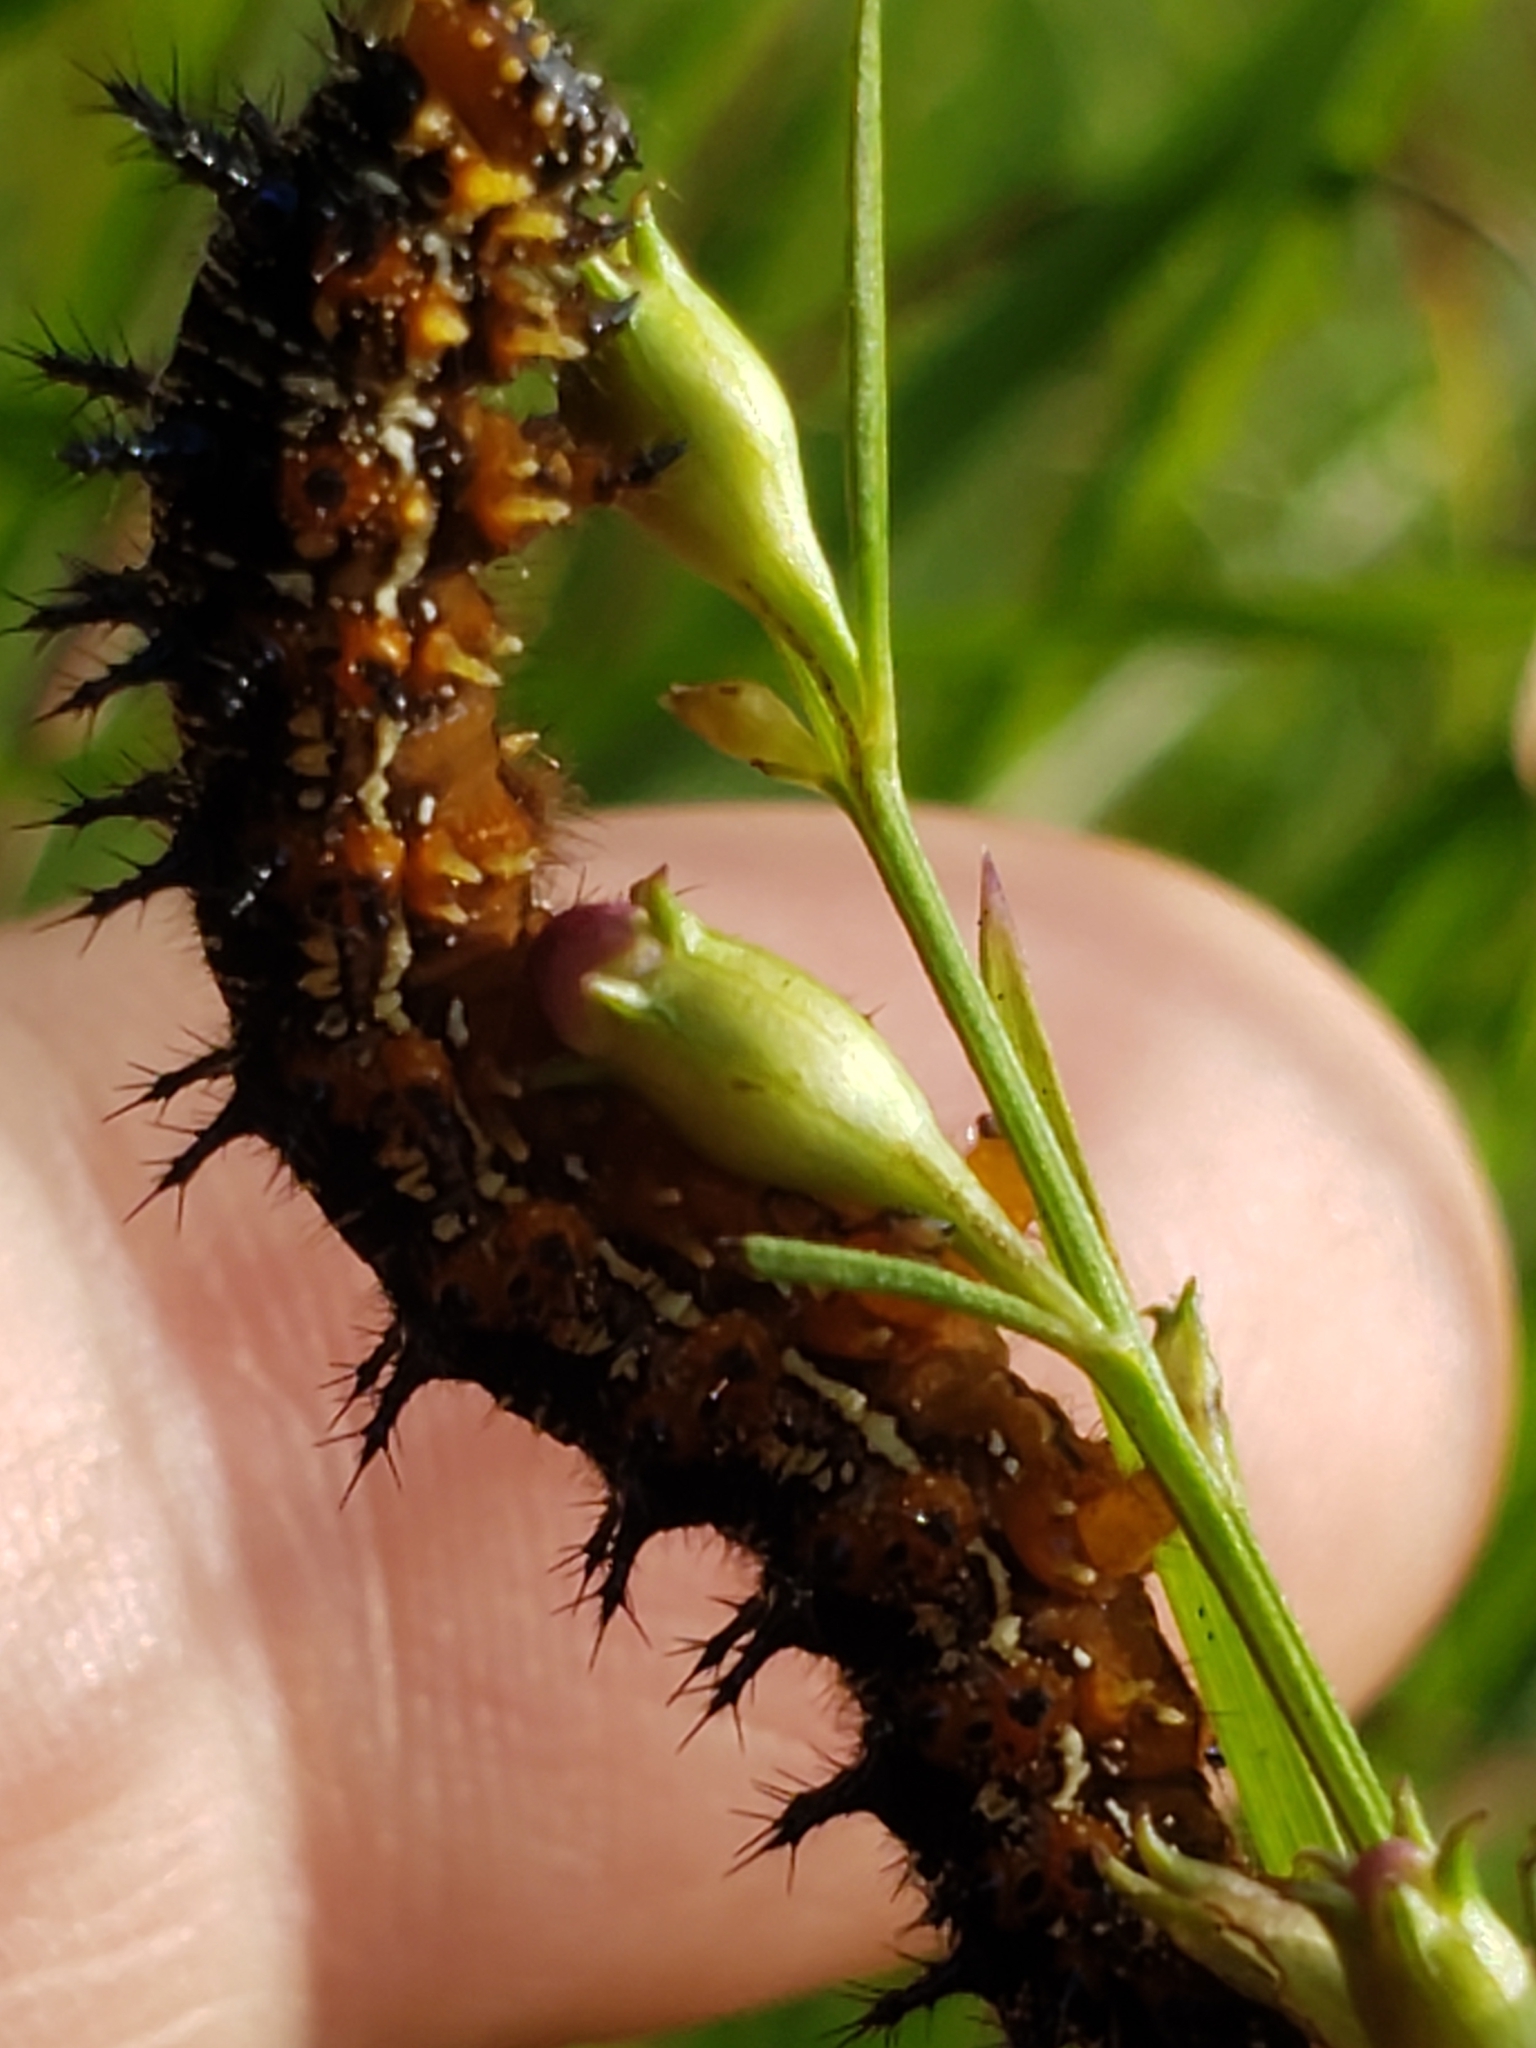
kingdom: Animalia
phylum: Arthropoda
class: Insecta
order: Lepidoptera
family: Nymphalidae
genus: Junonia
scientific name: Junonia coenia
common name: Common buckeye
